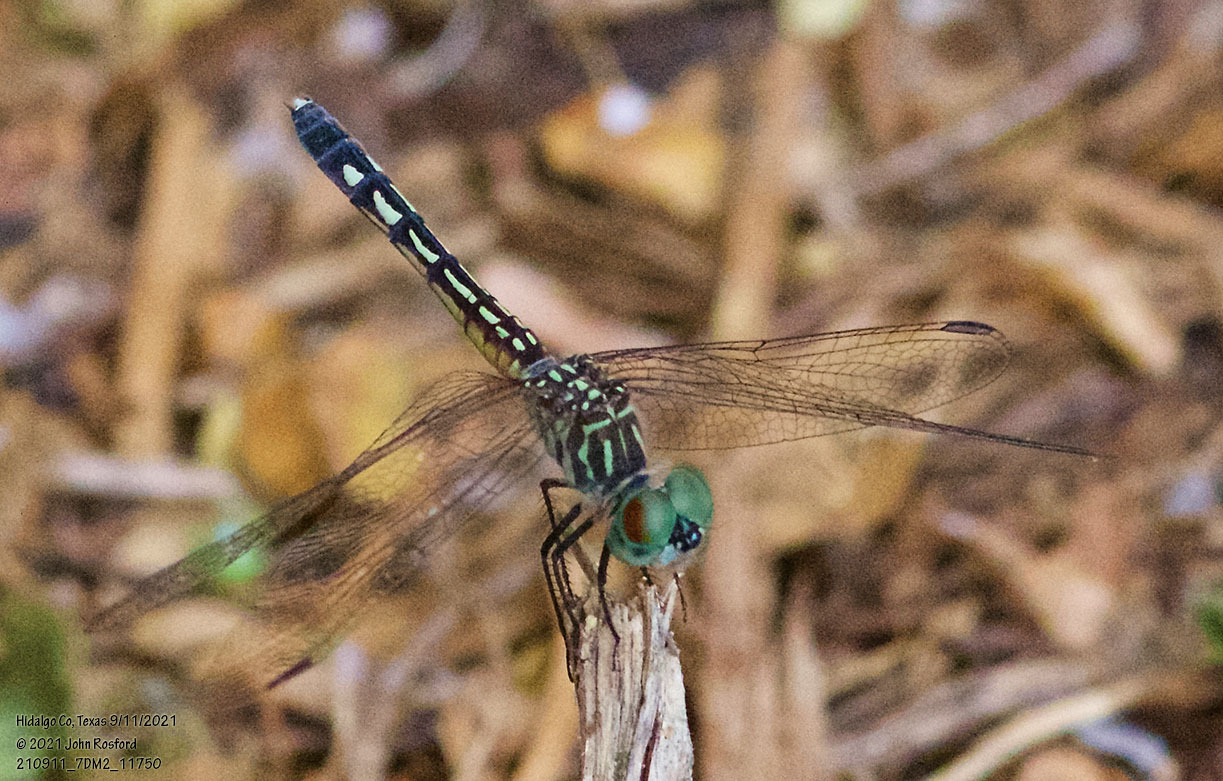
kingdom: Animalia
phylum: Arthropoda
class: Insecta
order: Odonata
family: Libellulidae
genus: Pachydiplax
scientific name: Pachydiplax longipennis
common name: Blue dasher
